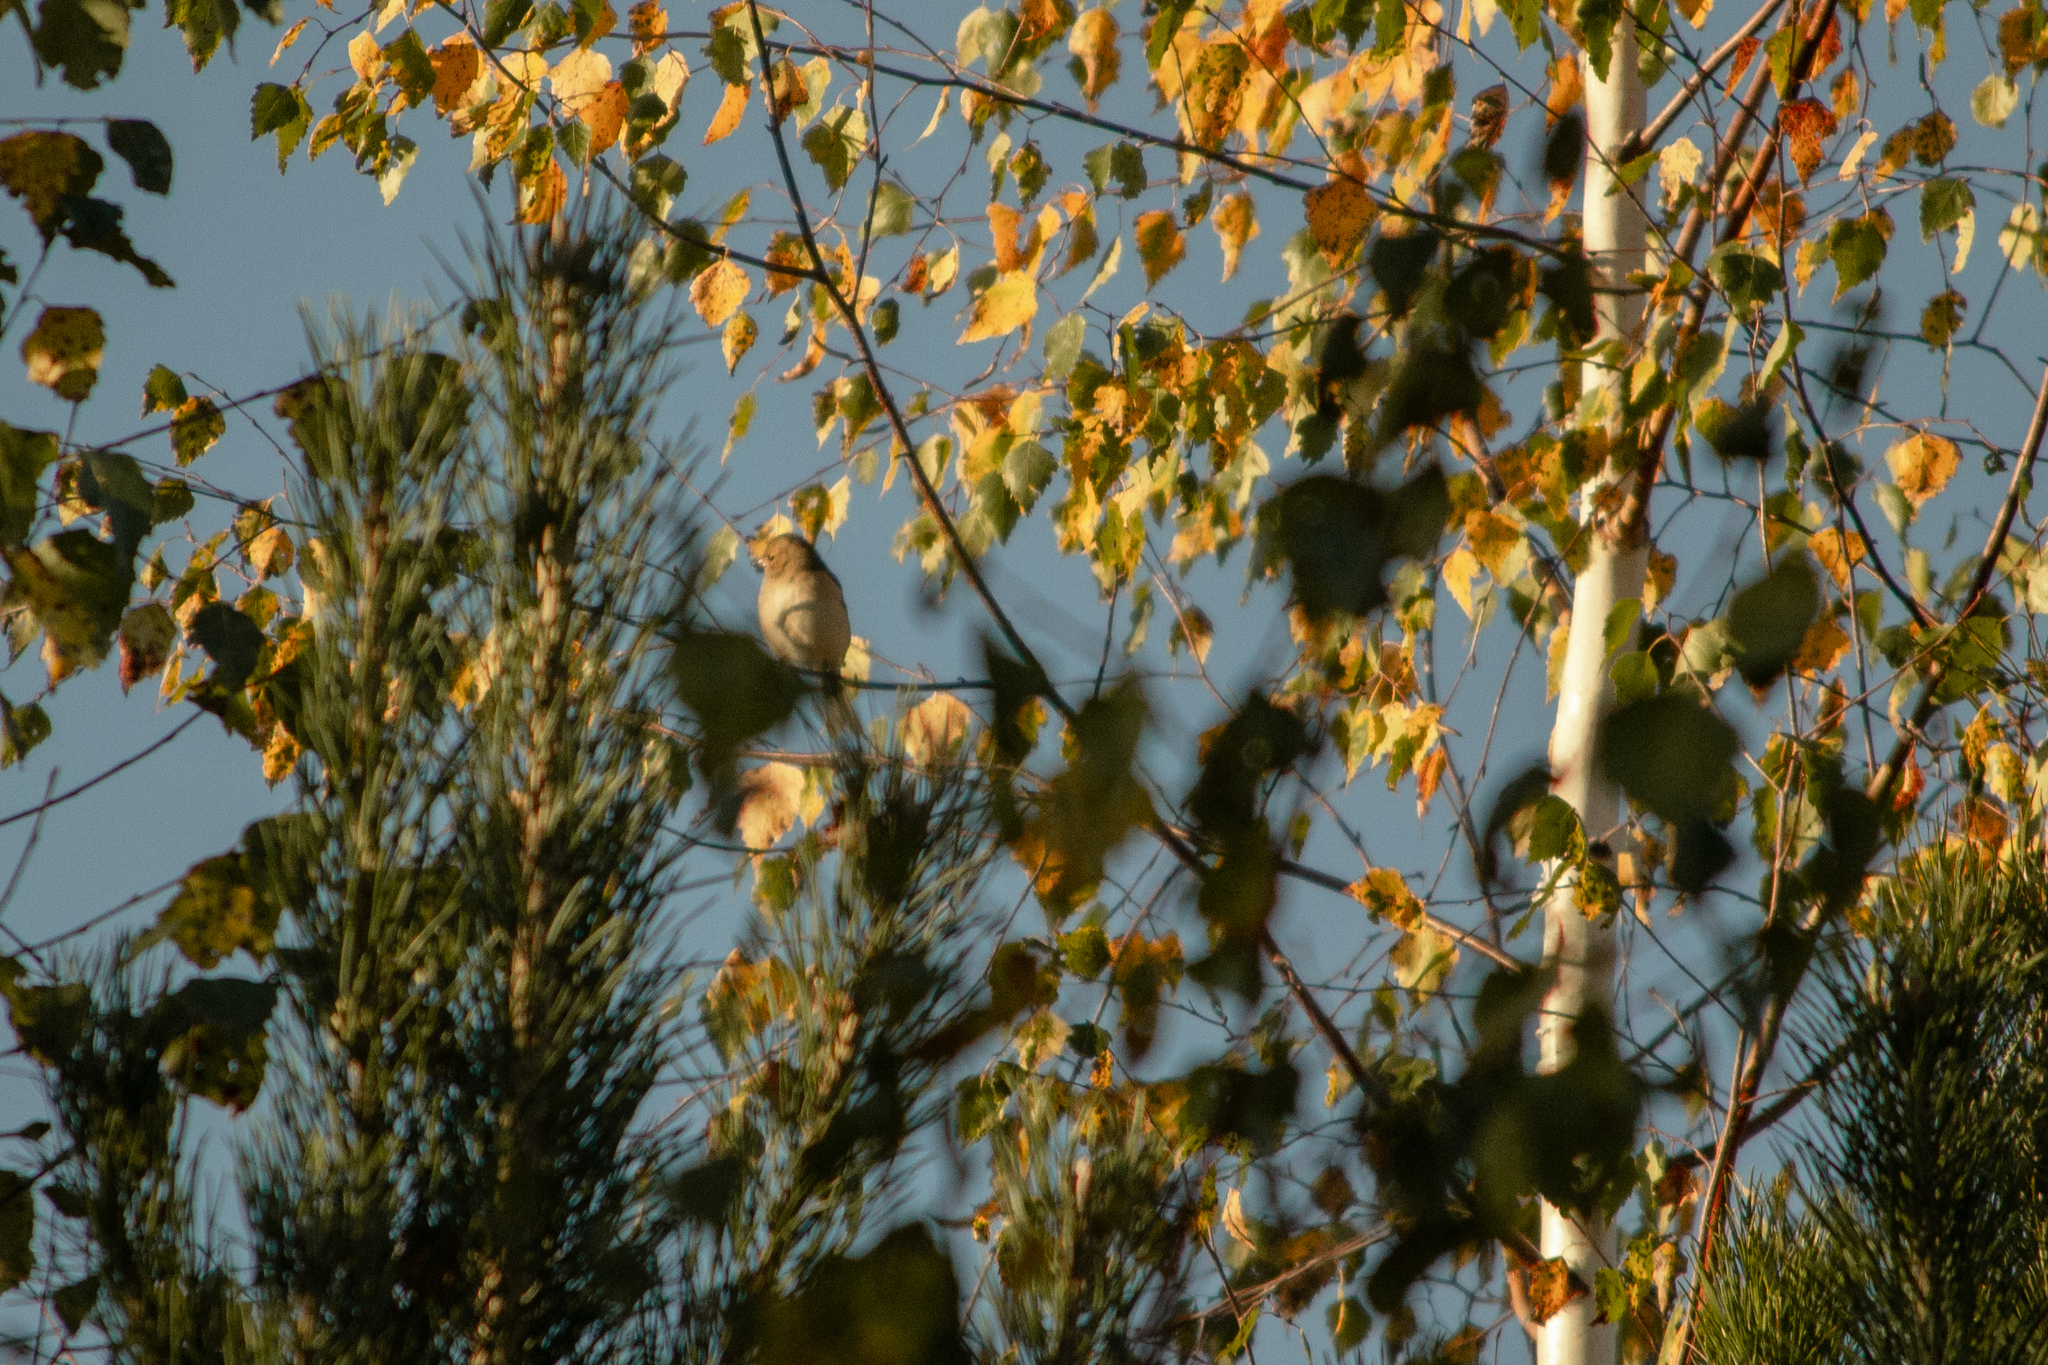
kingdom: Animalia
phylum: Chordata
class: Aves
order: Passeriformes
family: Fringillidae
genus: Fringilla
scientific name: Fringilla coelebs
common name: Common chaffinch
